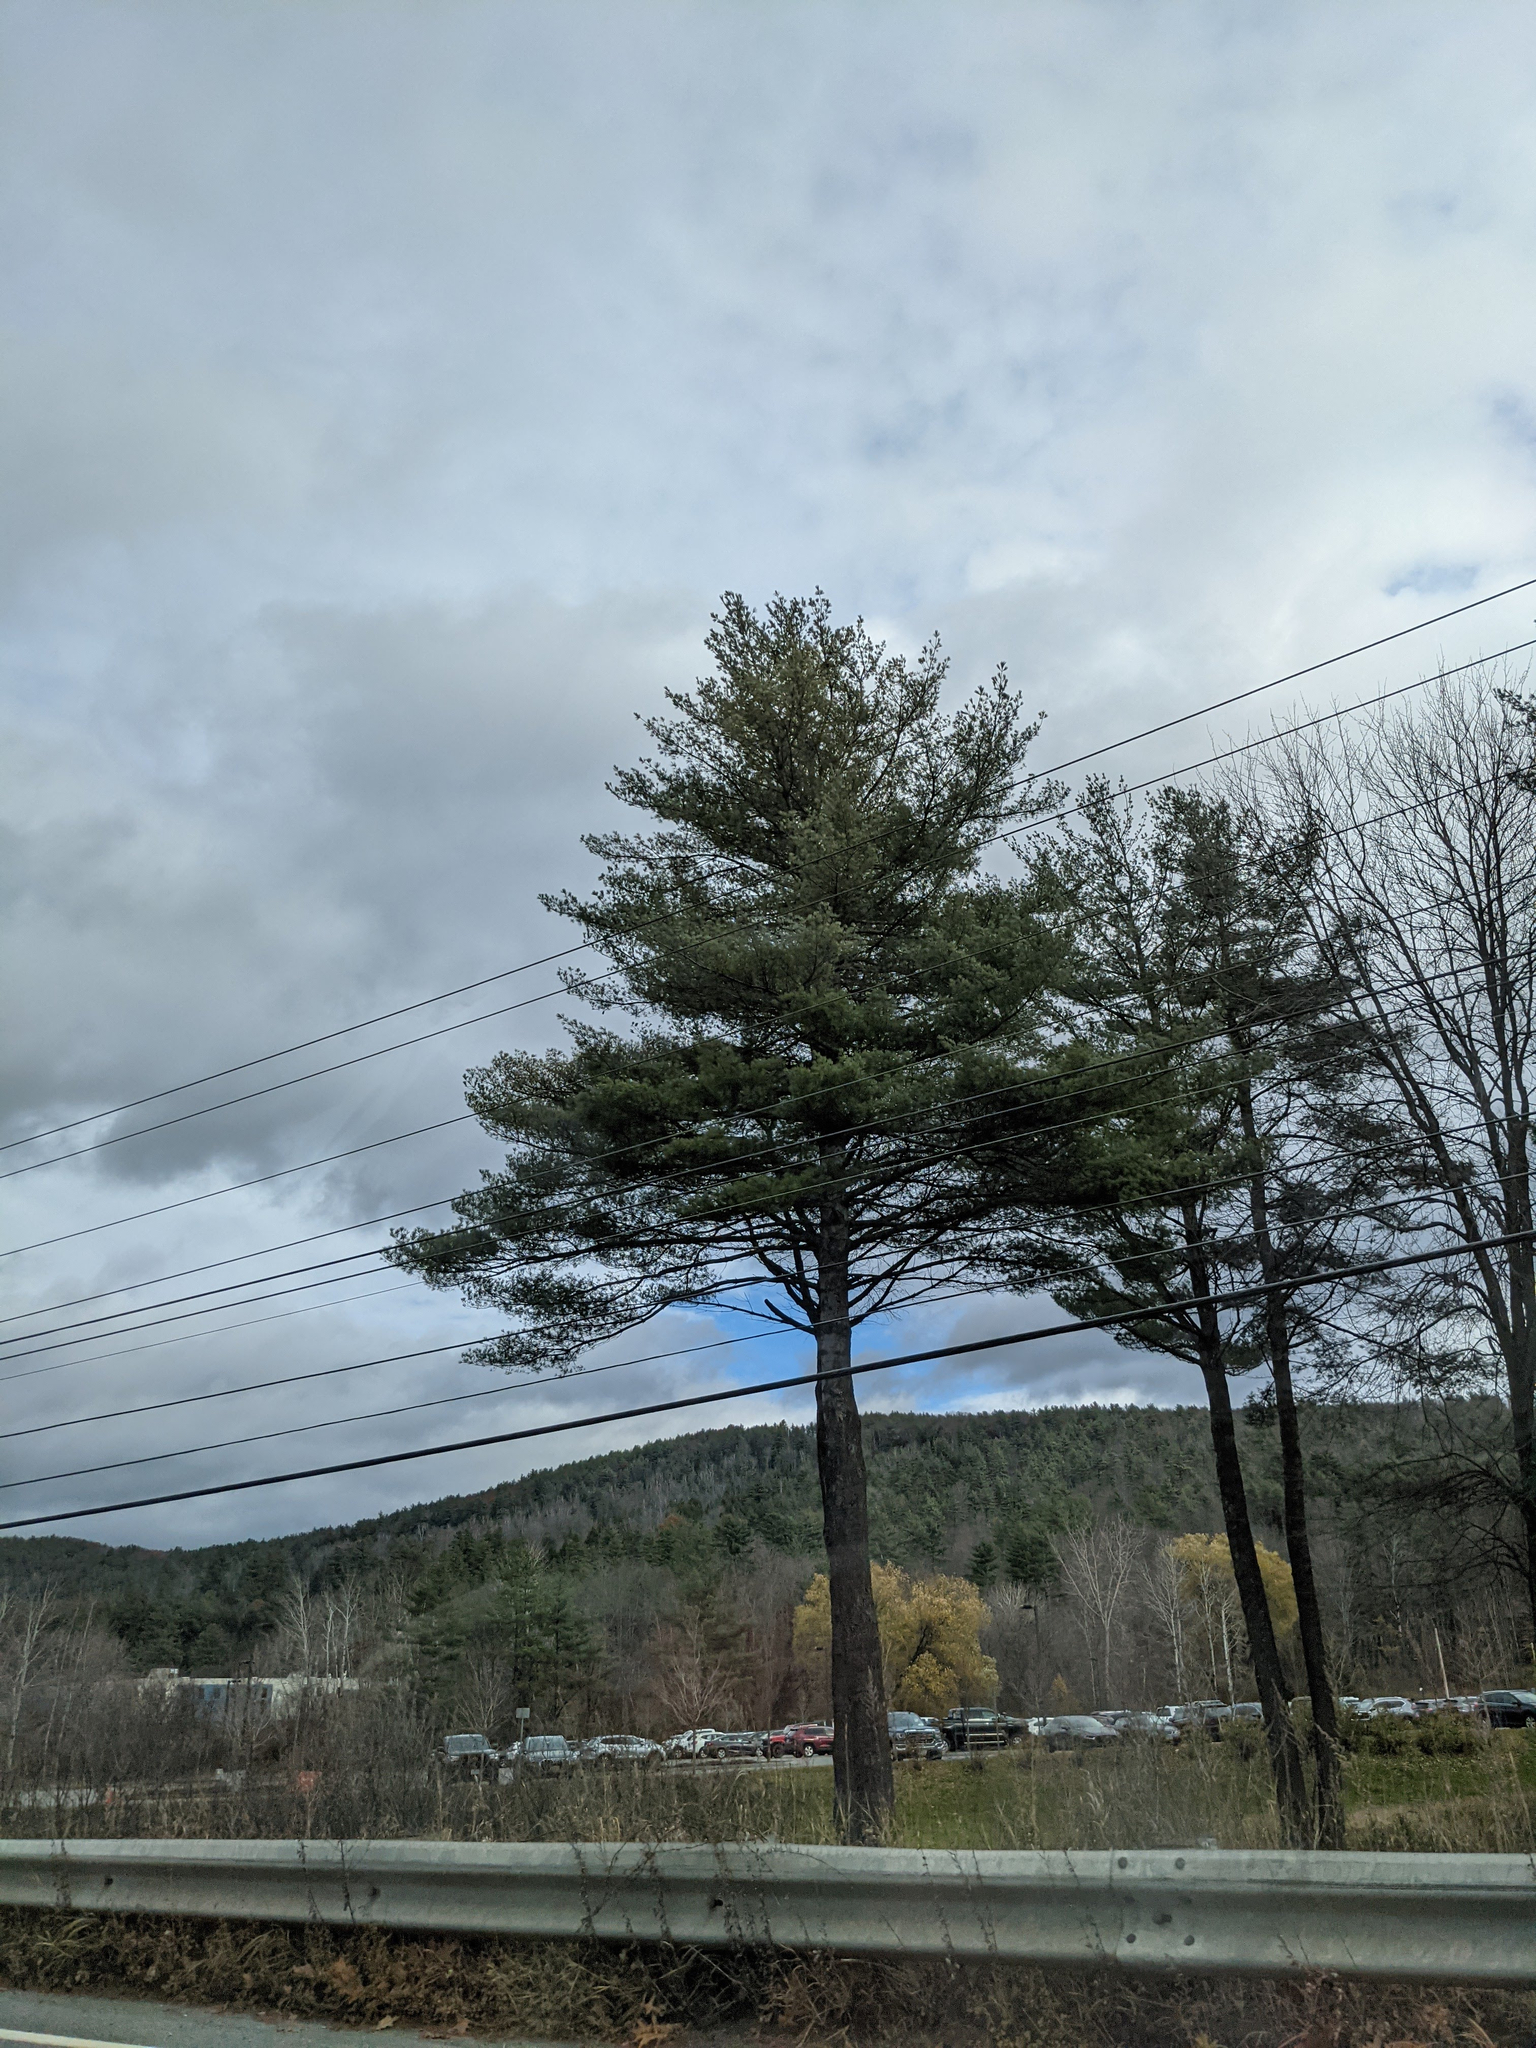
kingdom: Plantae
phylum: Tracheophyta
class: Pinopsida
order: Pinales
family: Pinaceae
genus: Pinus
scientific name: Pinus strobus
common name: Weymouth pine
